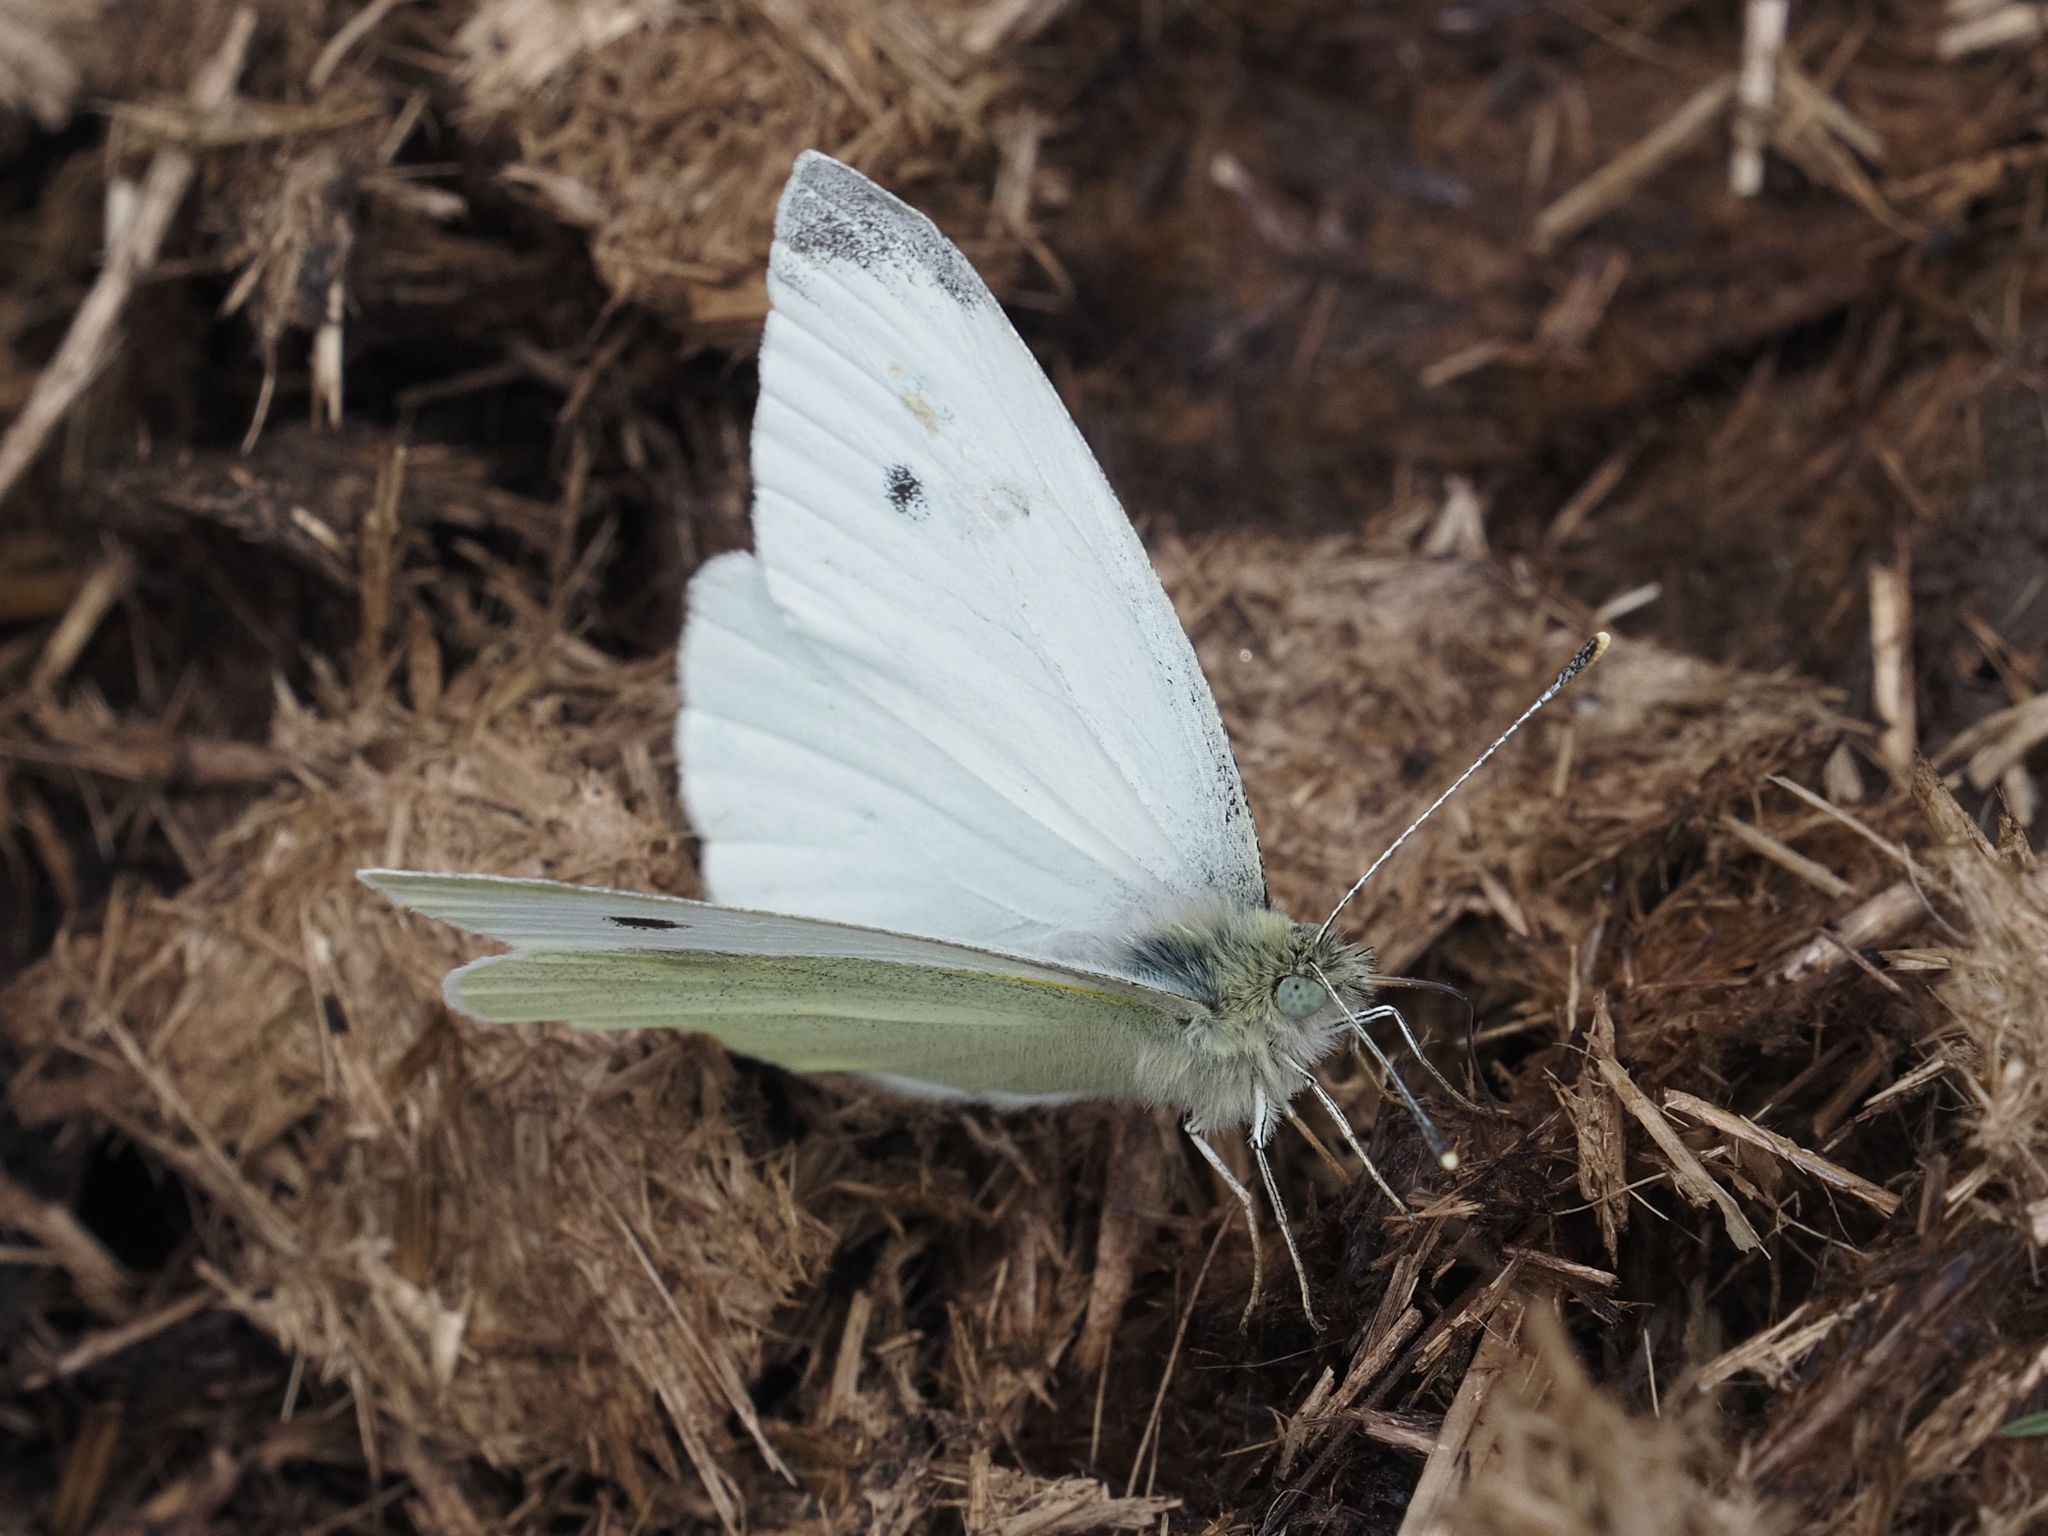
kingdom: Animalia
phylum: Arthropoda
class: Insecta
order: Lepidoptera
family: Pieridae
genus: Pieris
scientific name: Pieris rapae
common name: Small white
